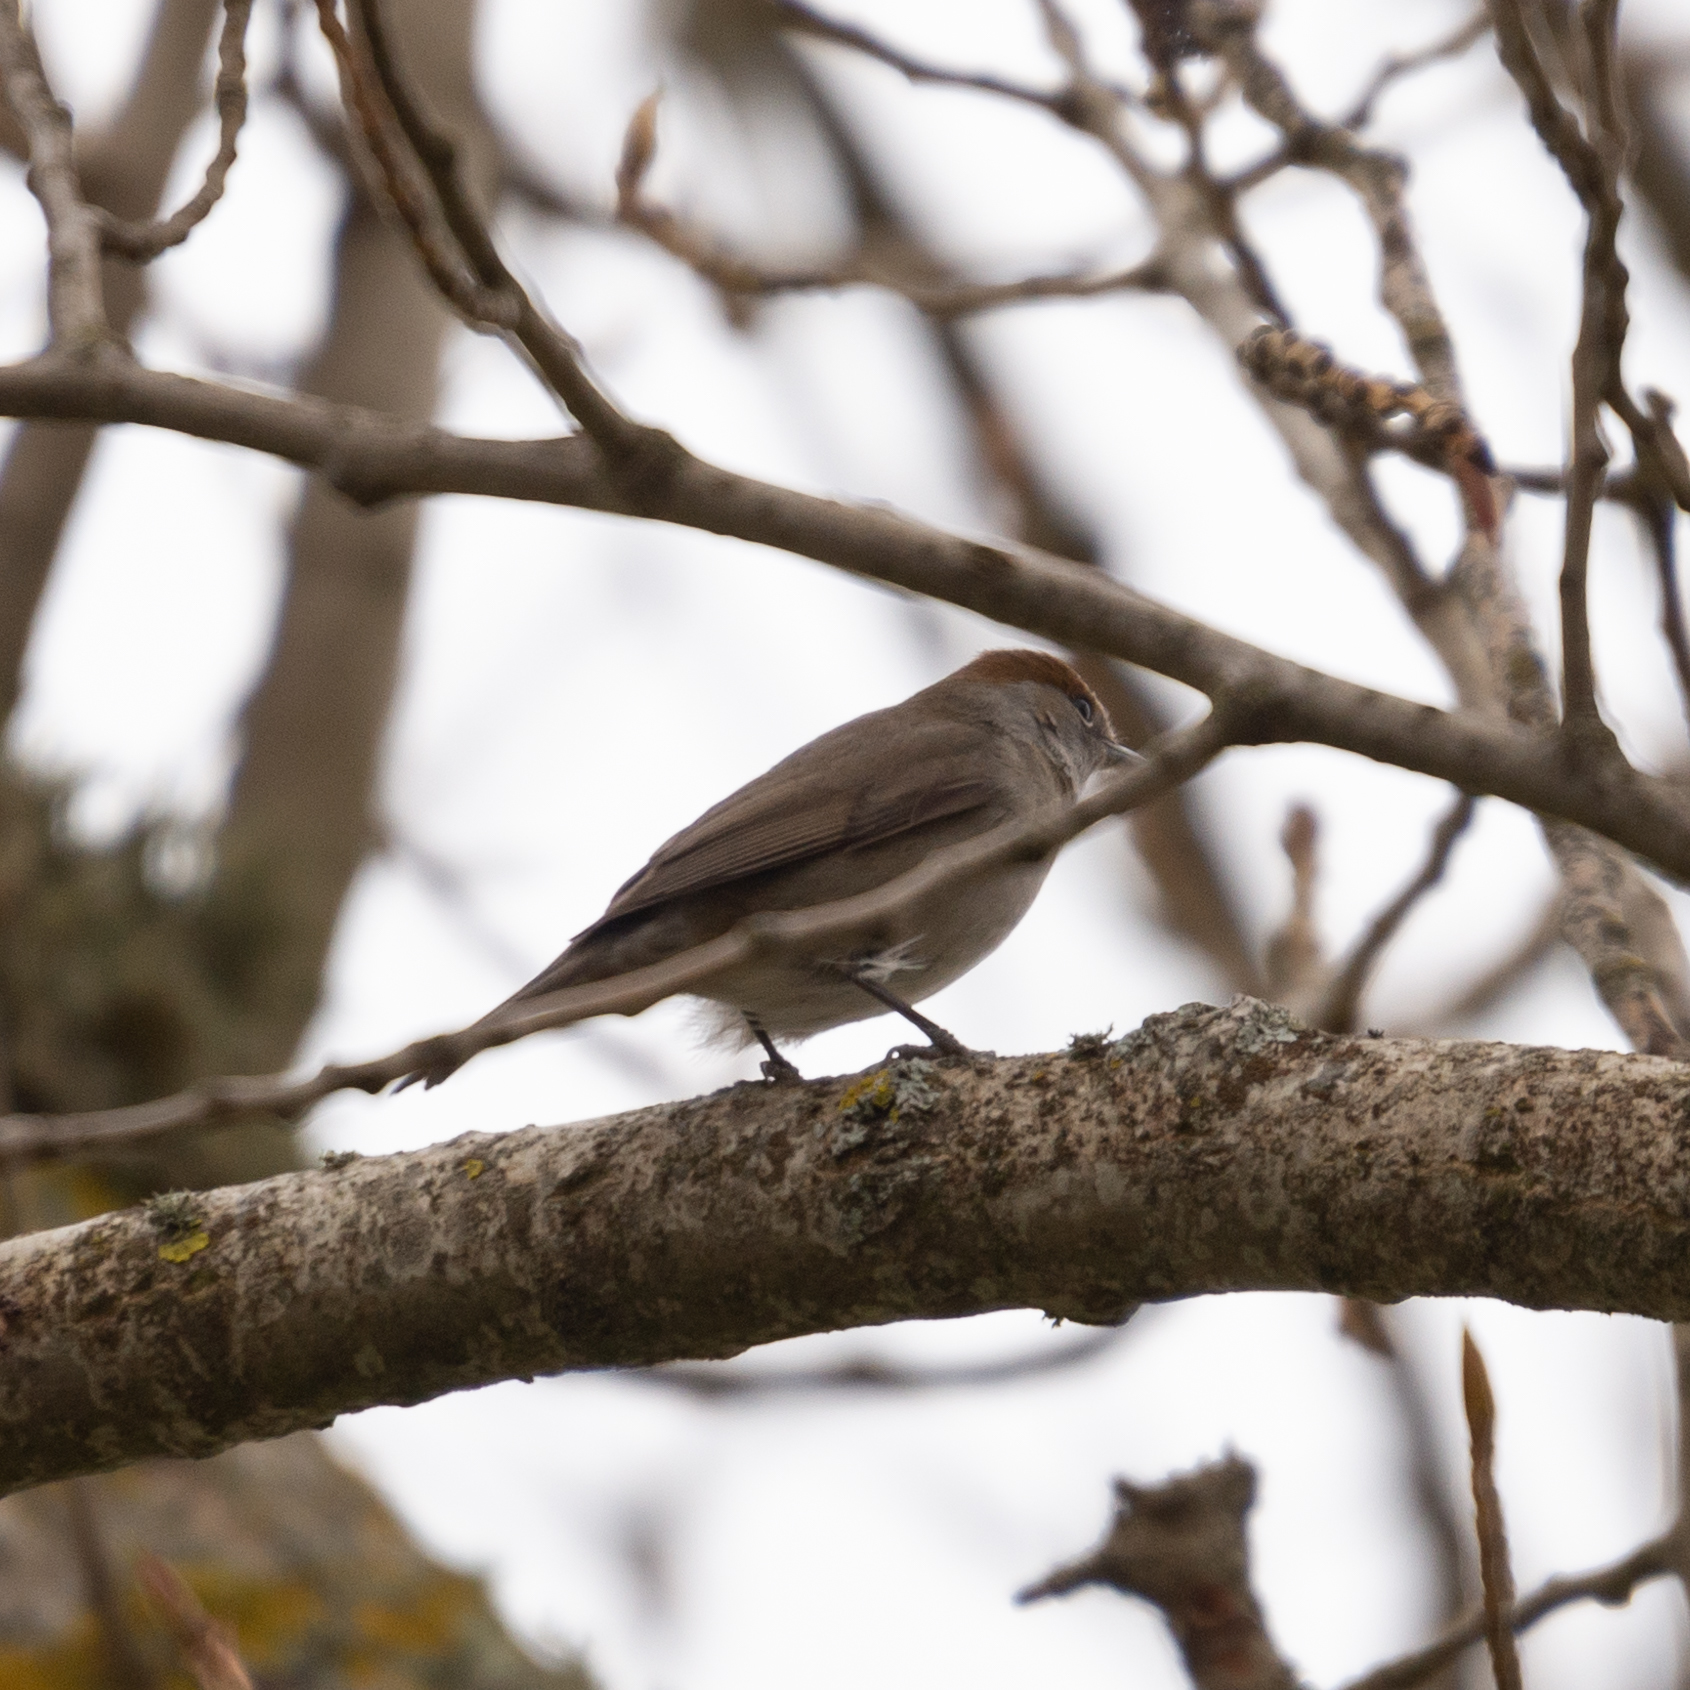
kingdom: Animalia
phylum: Chordata
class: Aves
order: Passeriformes
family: Sylviidae
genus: Sylvia
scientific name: Sylvia atricapilla
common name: Eurasian blackcap
